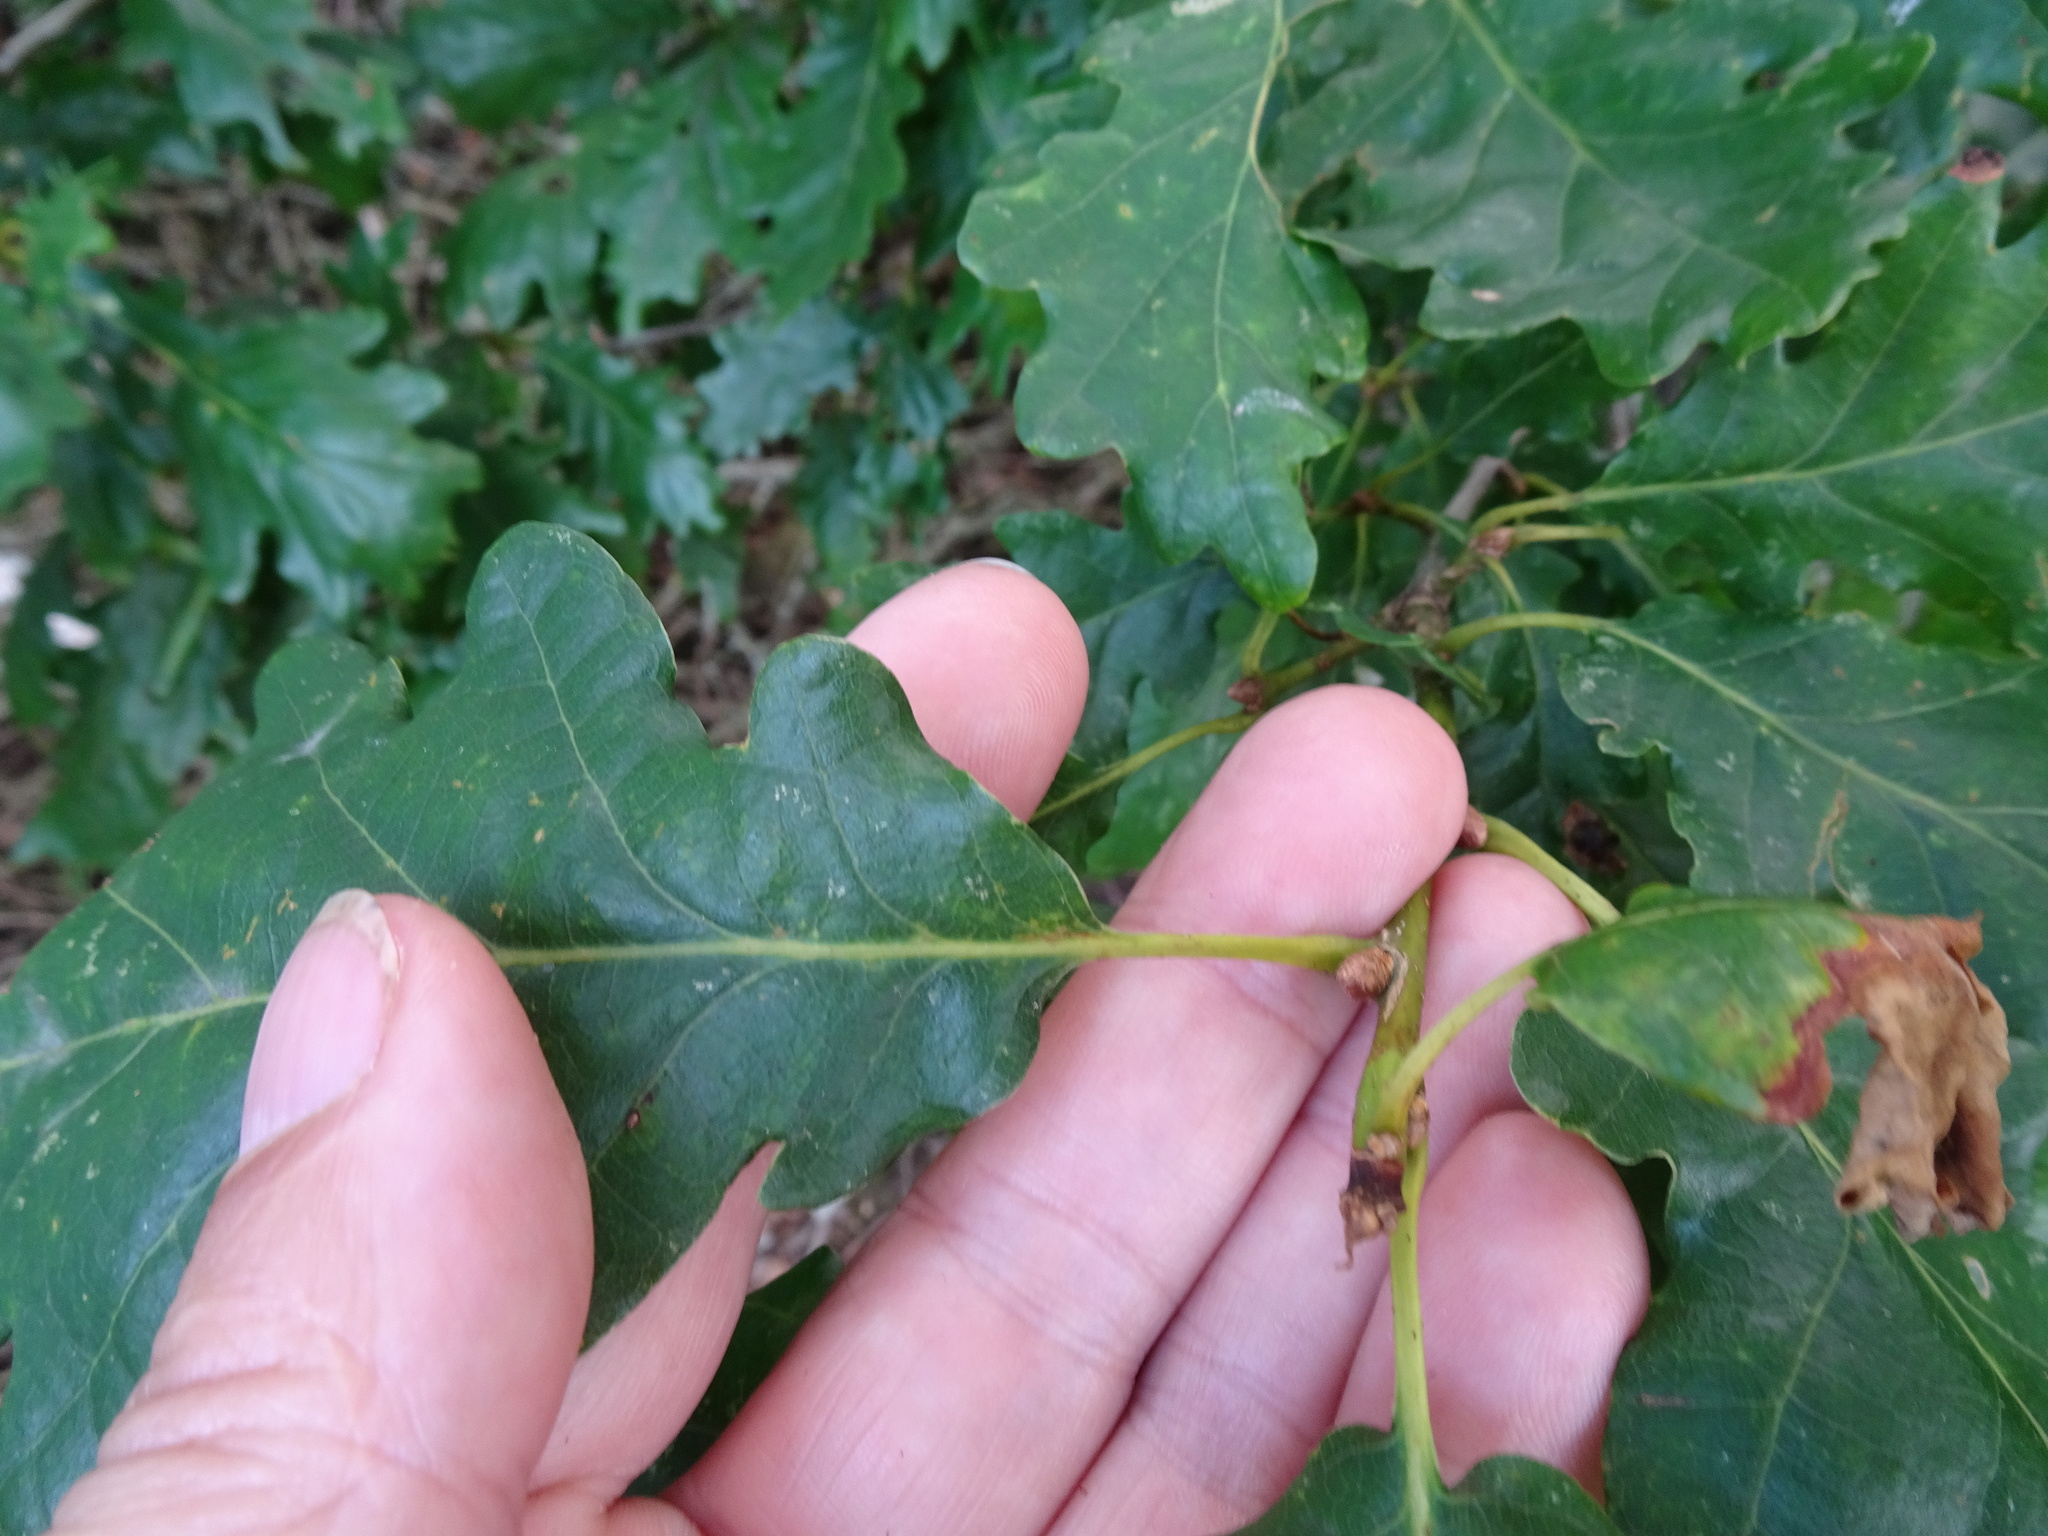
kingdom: Plantae
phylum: Tracheophyta
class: Magnoliopsida
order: Fagales
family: Fagaceae
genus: Quercus
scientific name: Quercus petraea
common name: Sessile oak
